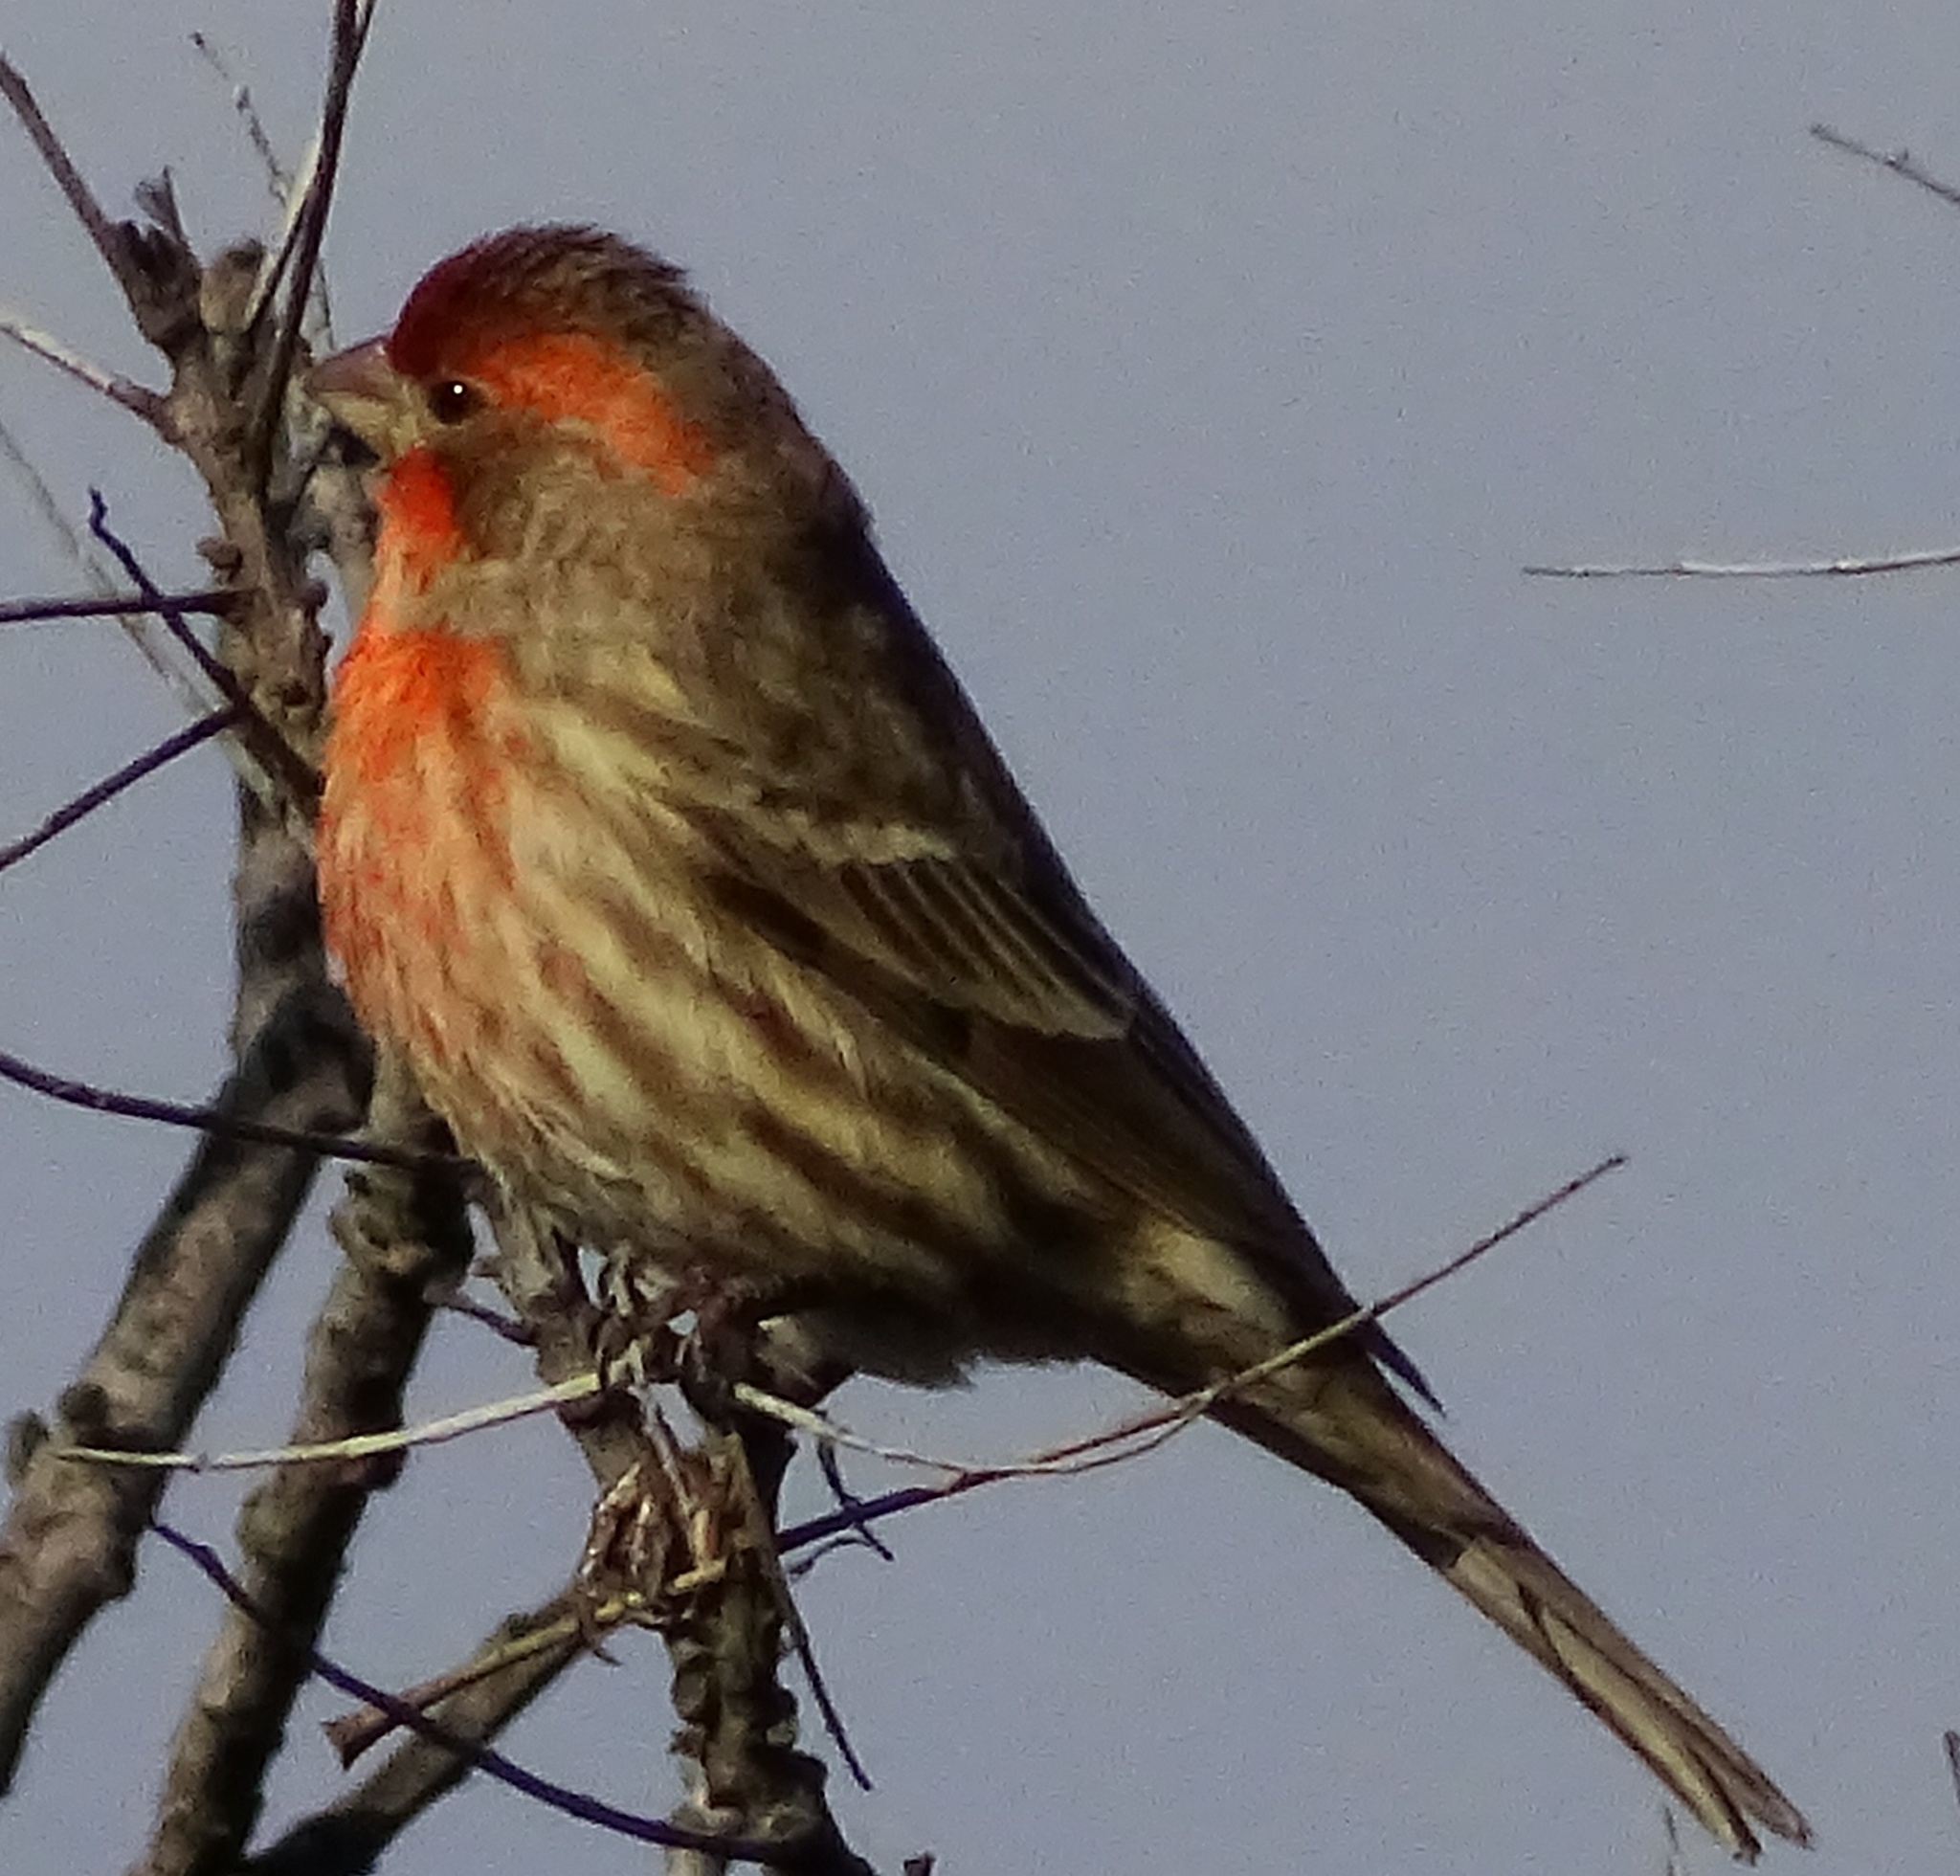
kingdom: Animalia
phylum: Chordata
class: Aves
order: Passeriformes
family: Fringillidae
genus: Haemorhous
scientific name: Haemorhous mexicanus
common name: House finch
